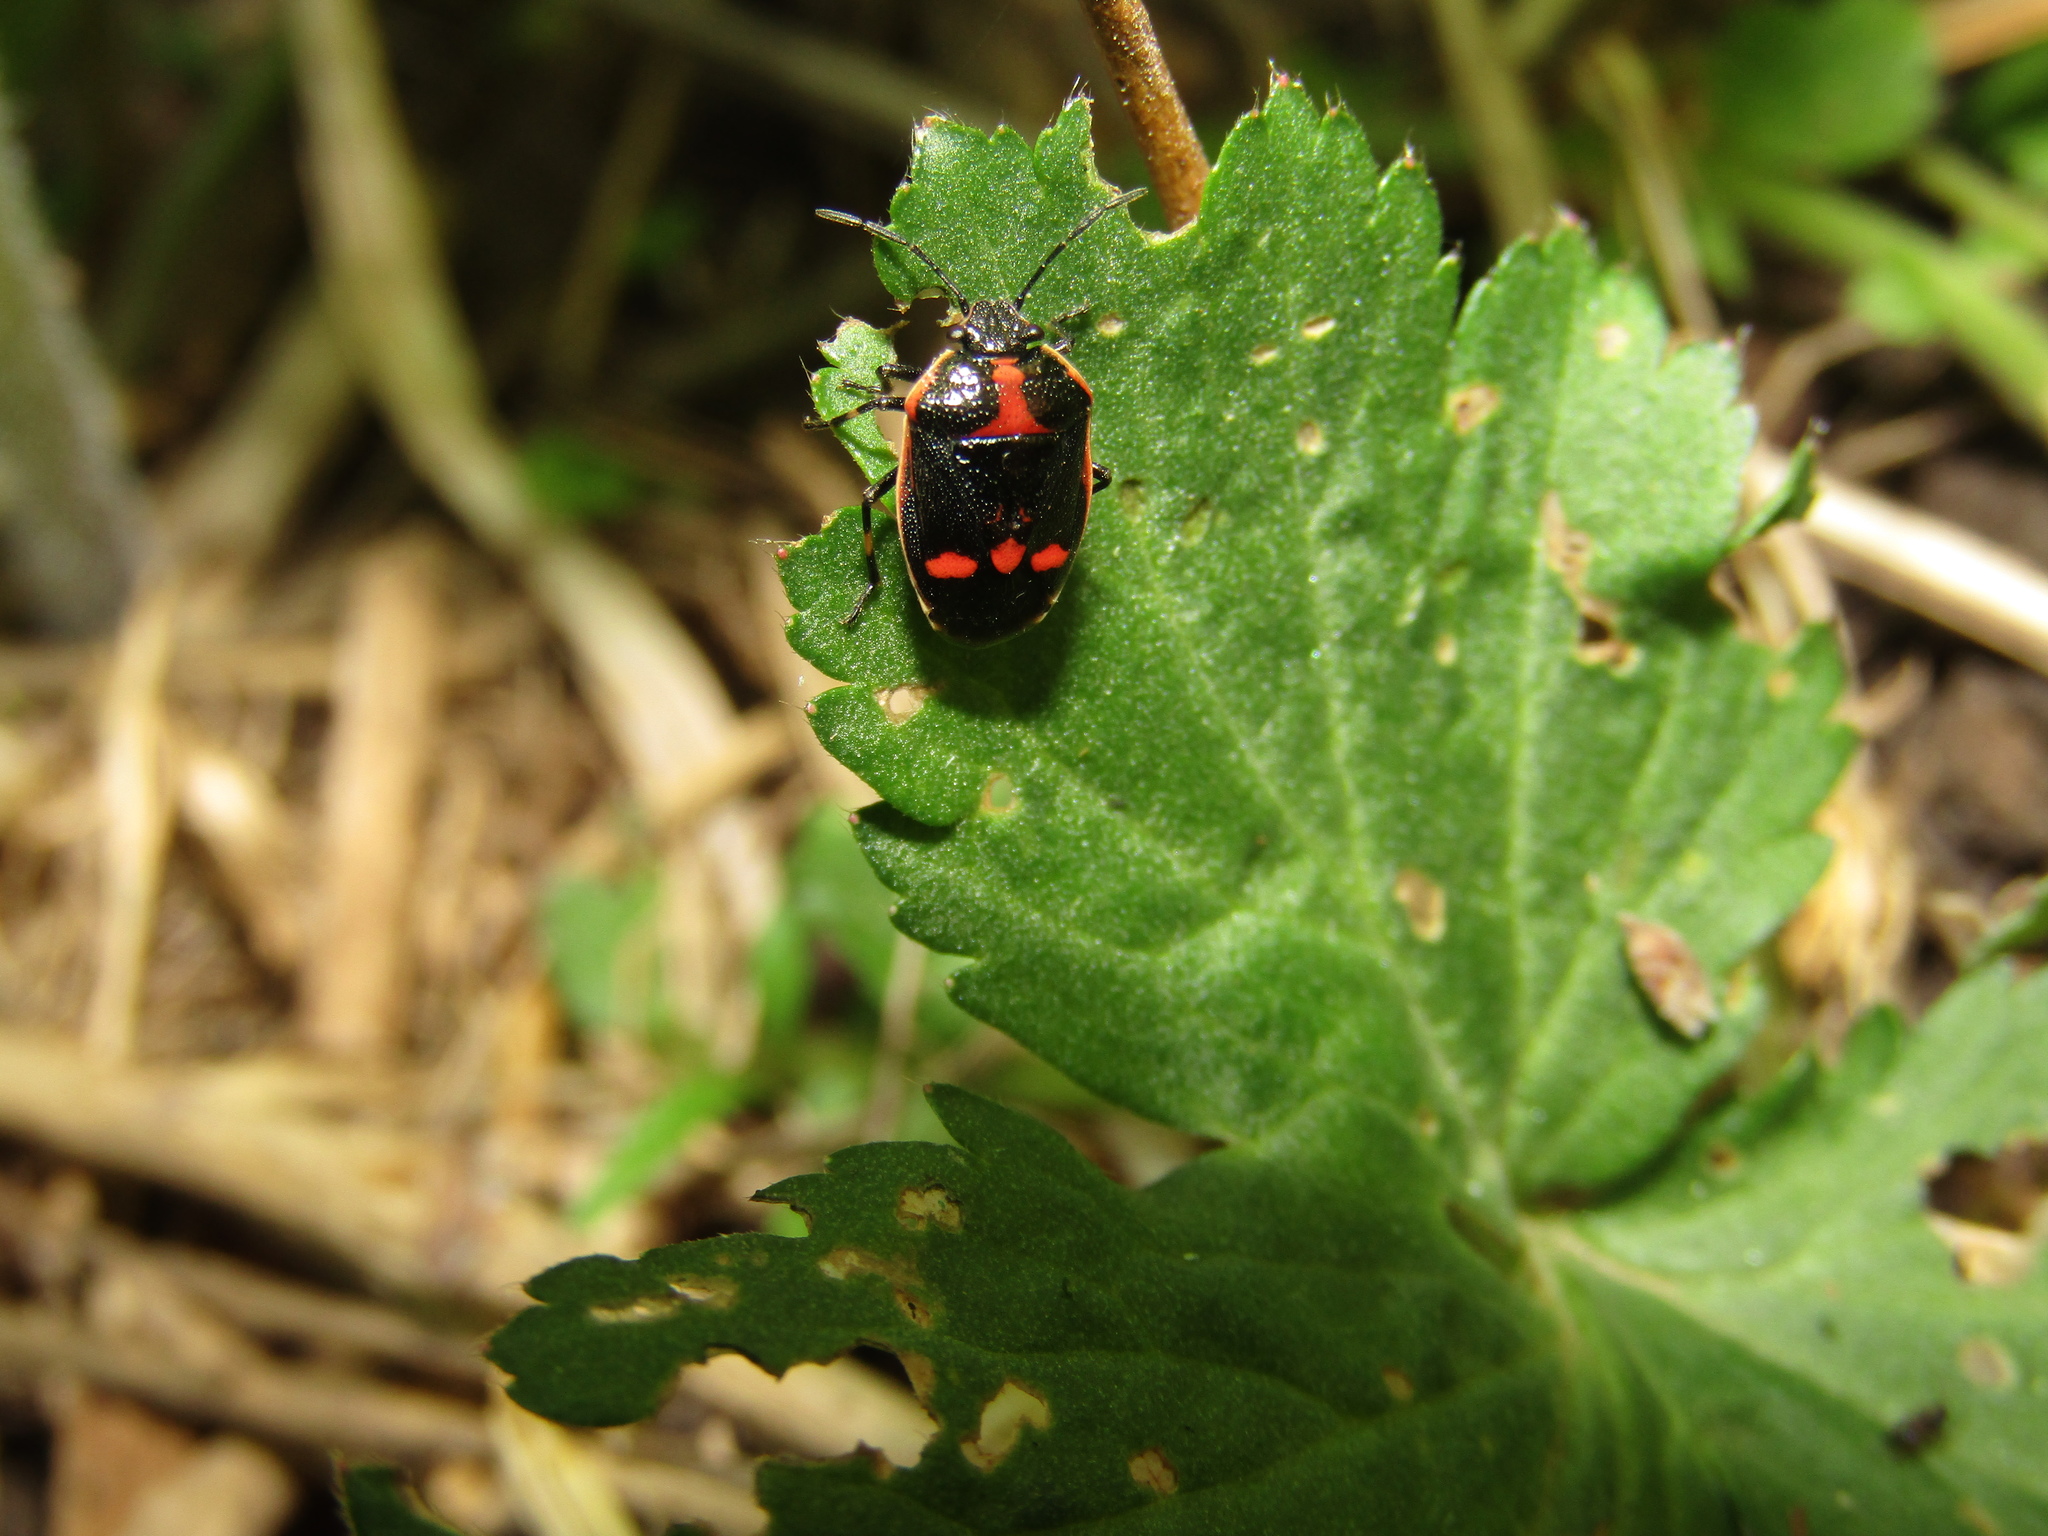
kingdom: Animalia
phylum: Arthropoda
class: Insecta
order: Hemiptera
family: Pentatomidae
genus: Eurydema
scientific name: Eurydema oleracea
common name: Cabbage bug
